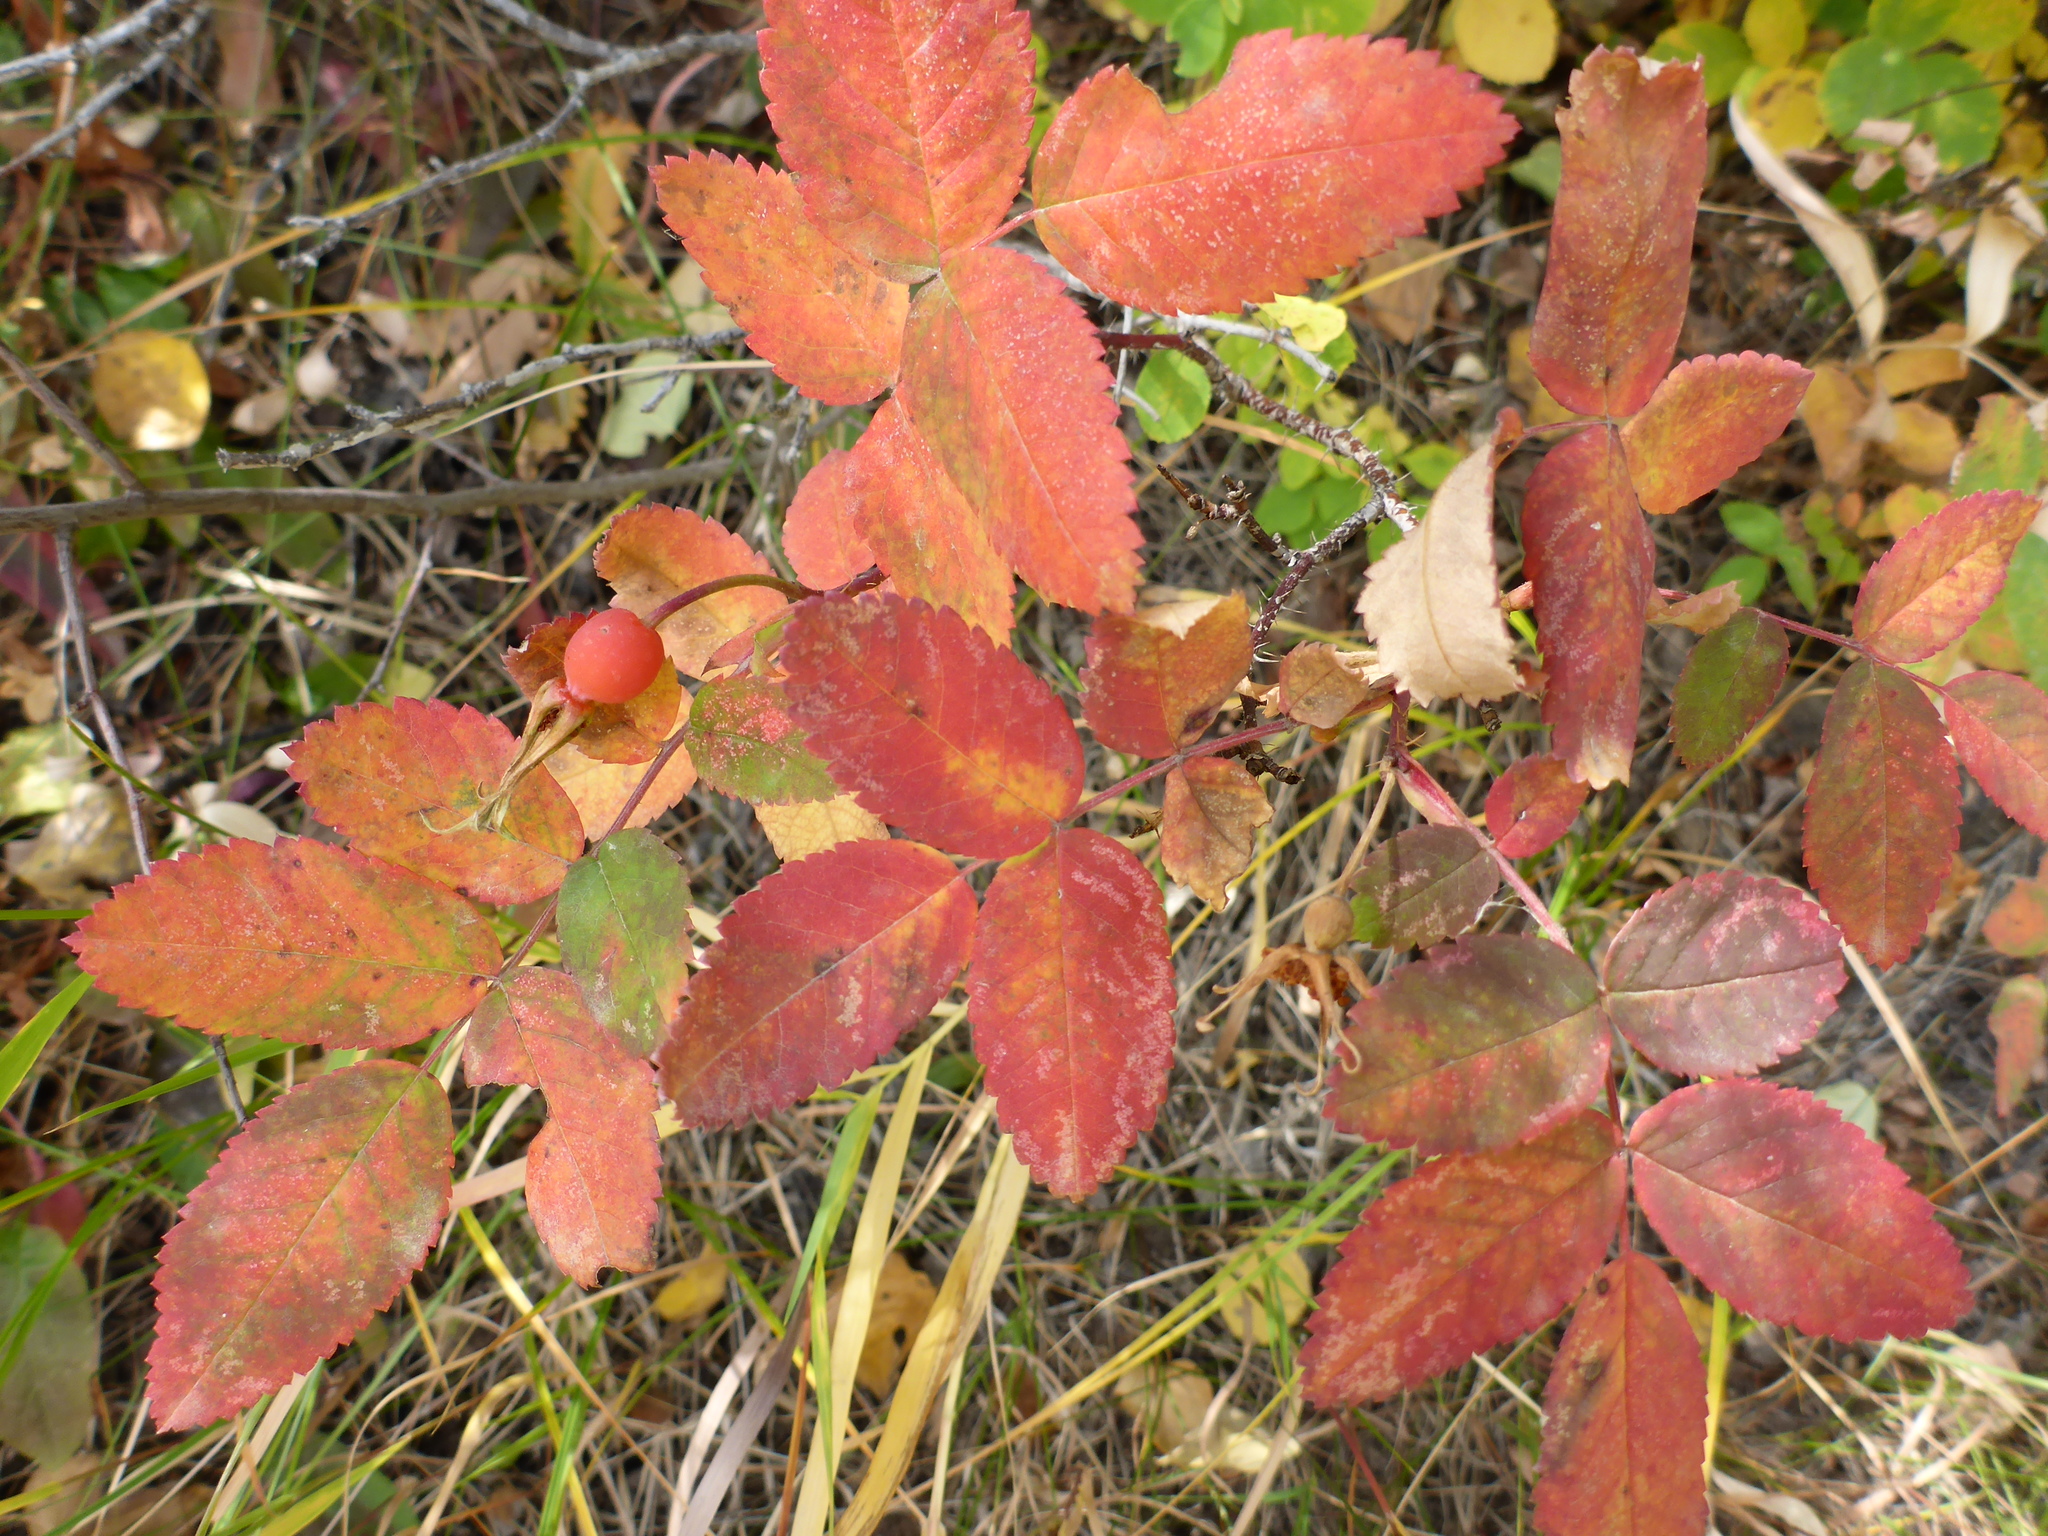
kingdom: Plantae
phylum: Tracheophyta
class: Magnoliopsida
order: Rosales
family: Rosaceae
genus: Rosa
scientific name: Rosa acicularis
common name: Prickly rose
